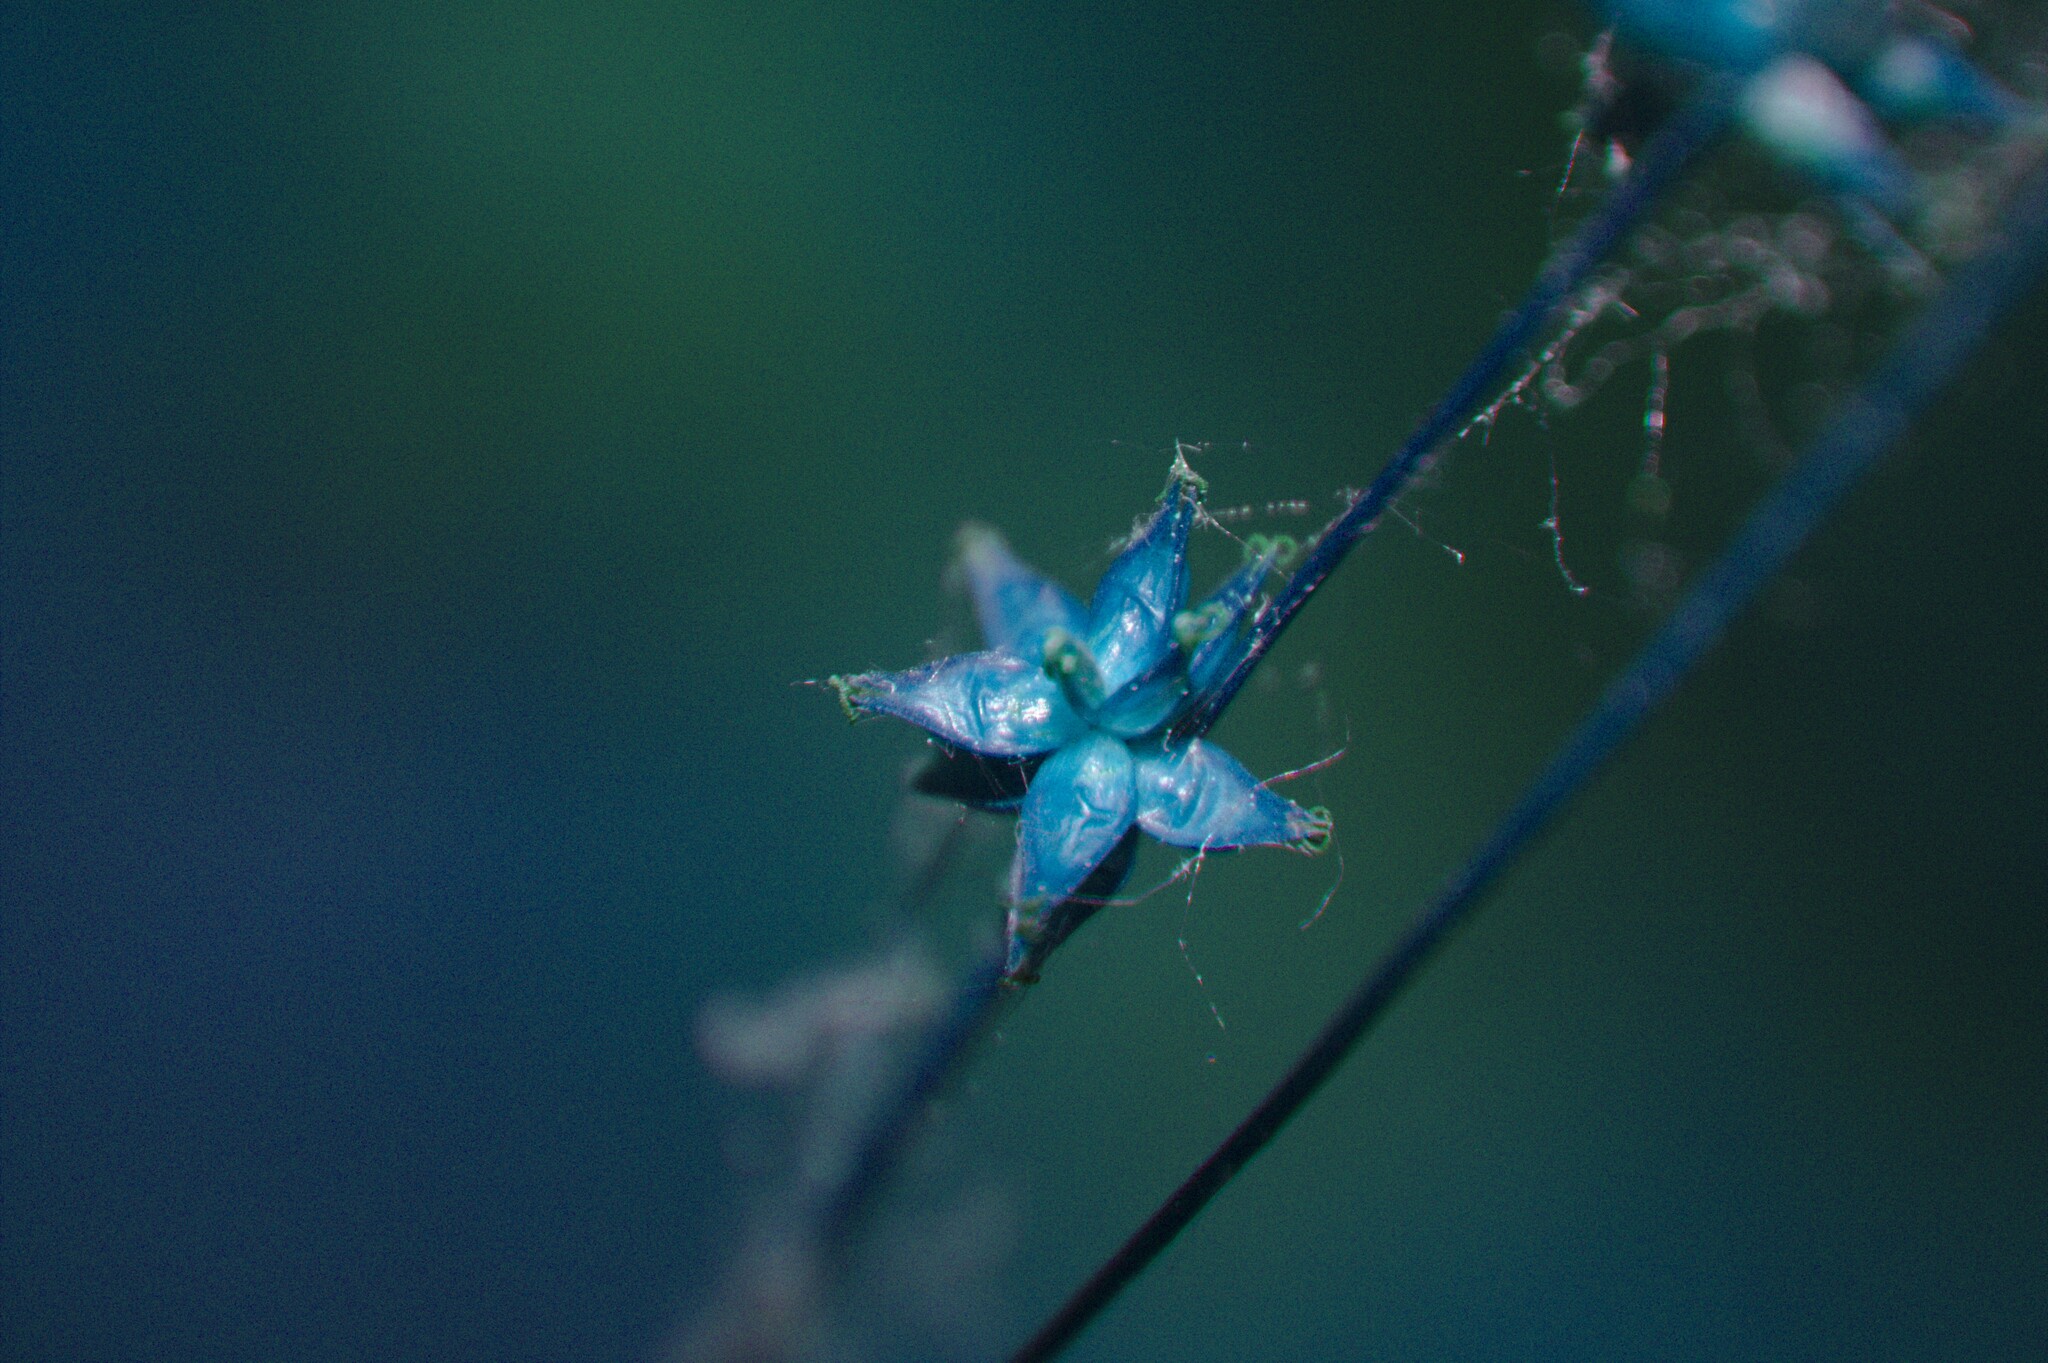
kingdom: Plantae
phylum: Tracheophyta
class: Liliopsida
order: Poales
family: Cyperaceae
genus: Carex
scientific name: Carex rosea
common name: Curly-styled wood sedge
